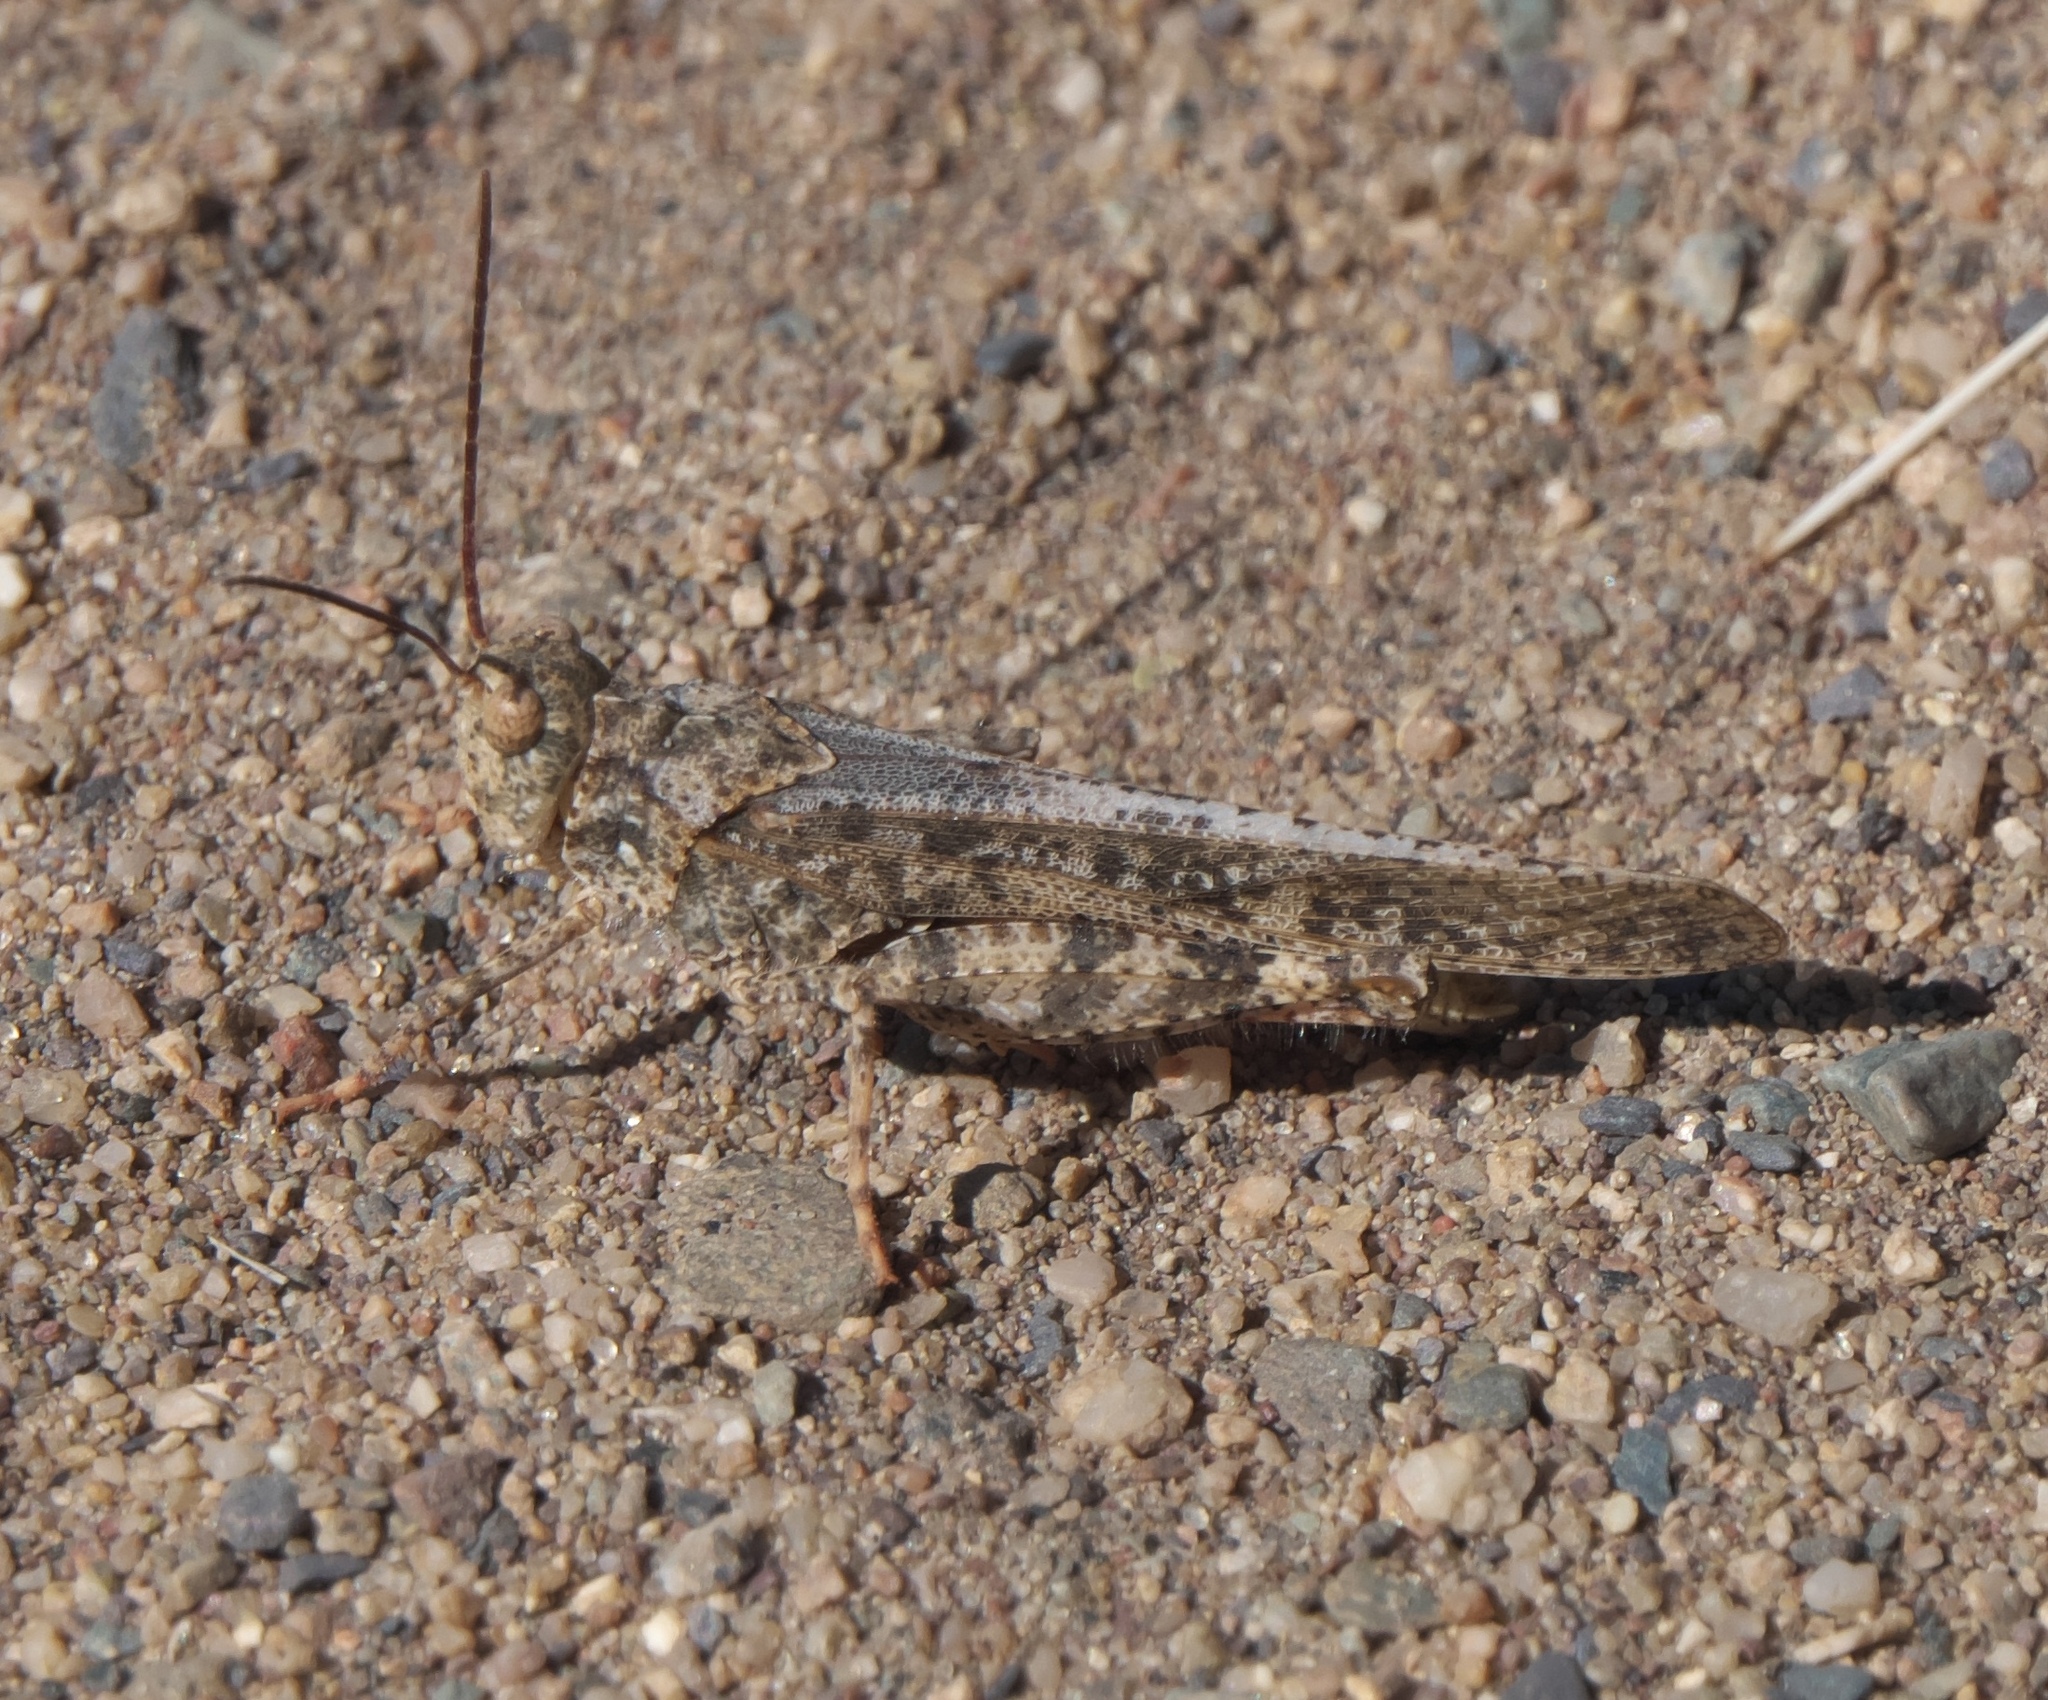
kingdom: Animalia
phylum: Arthropoda
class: Insecta
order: Orthoptera
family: Acrididae
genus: Spharagemon
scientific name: Spharagemon collare
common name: Mottled sand grasshopper
